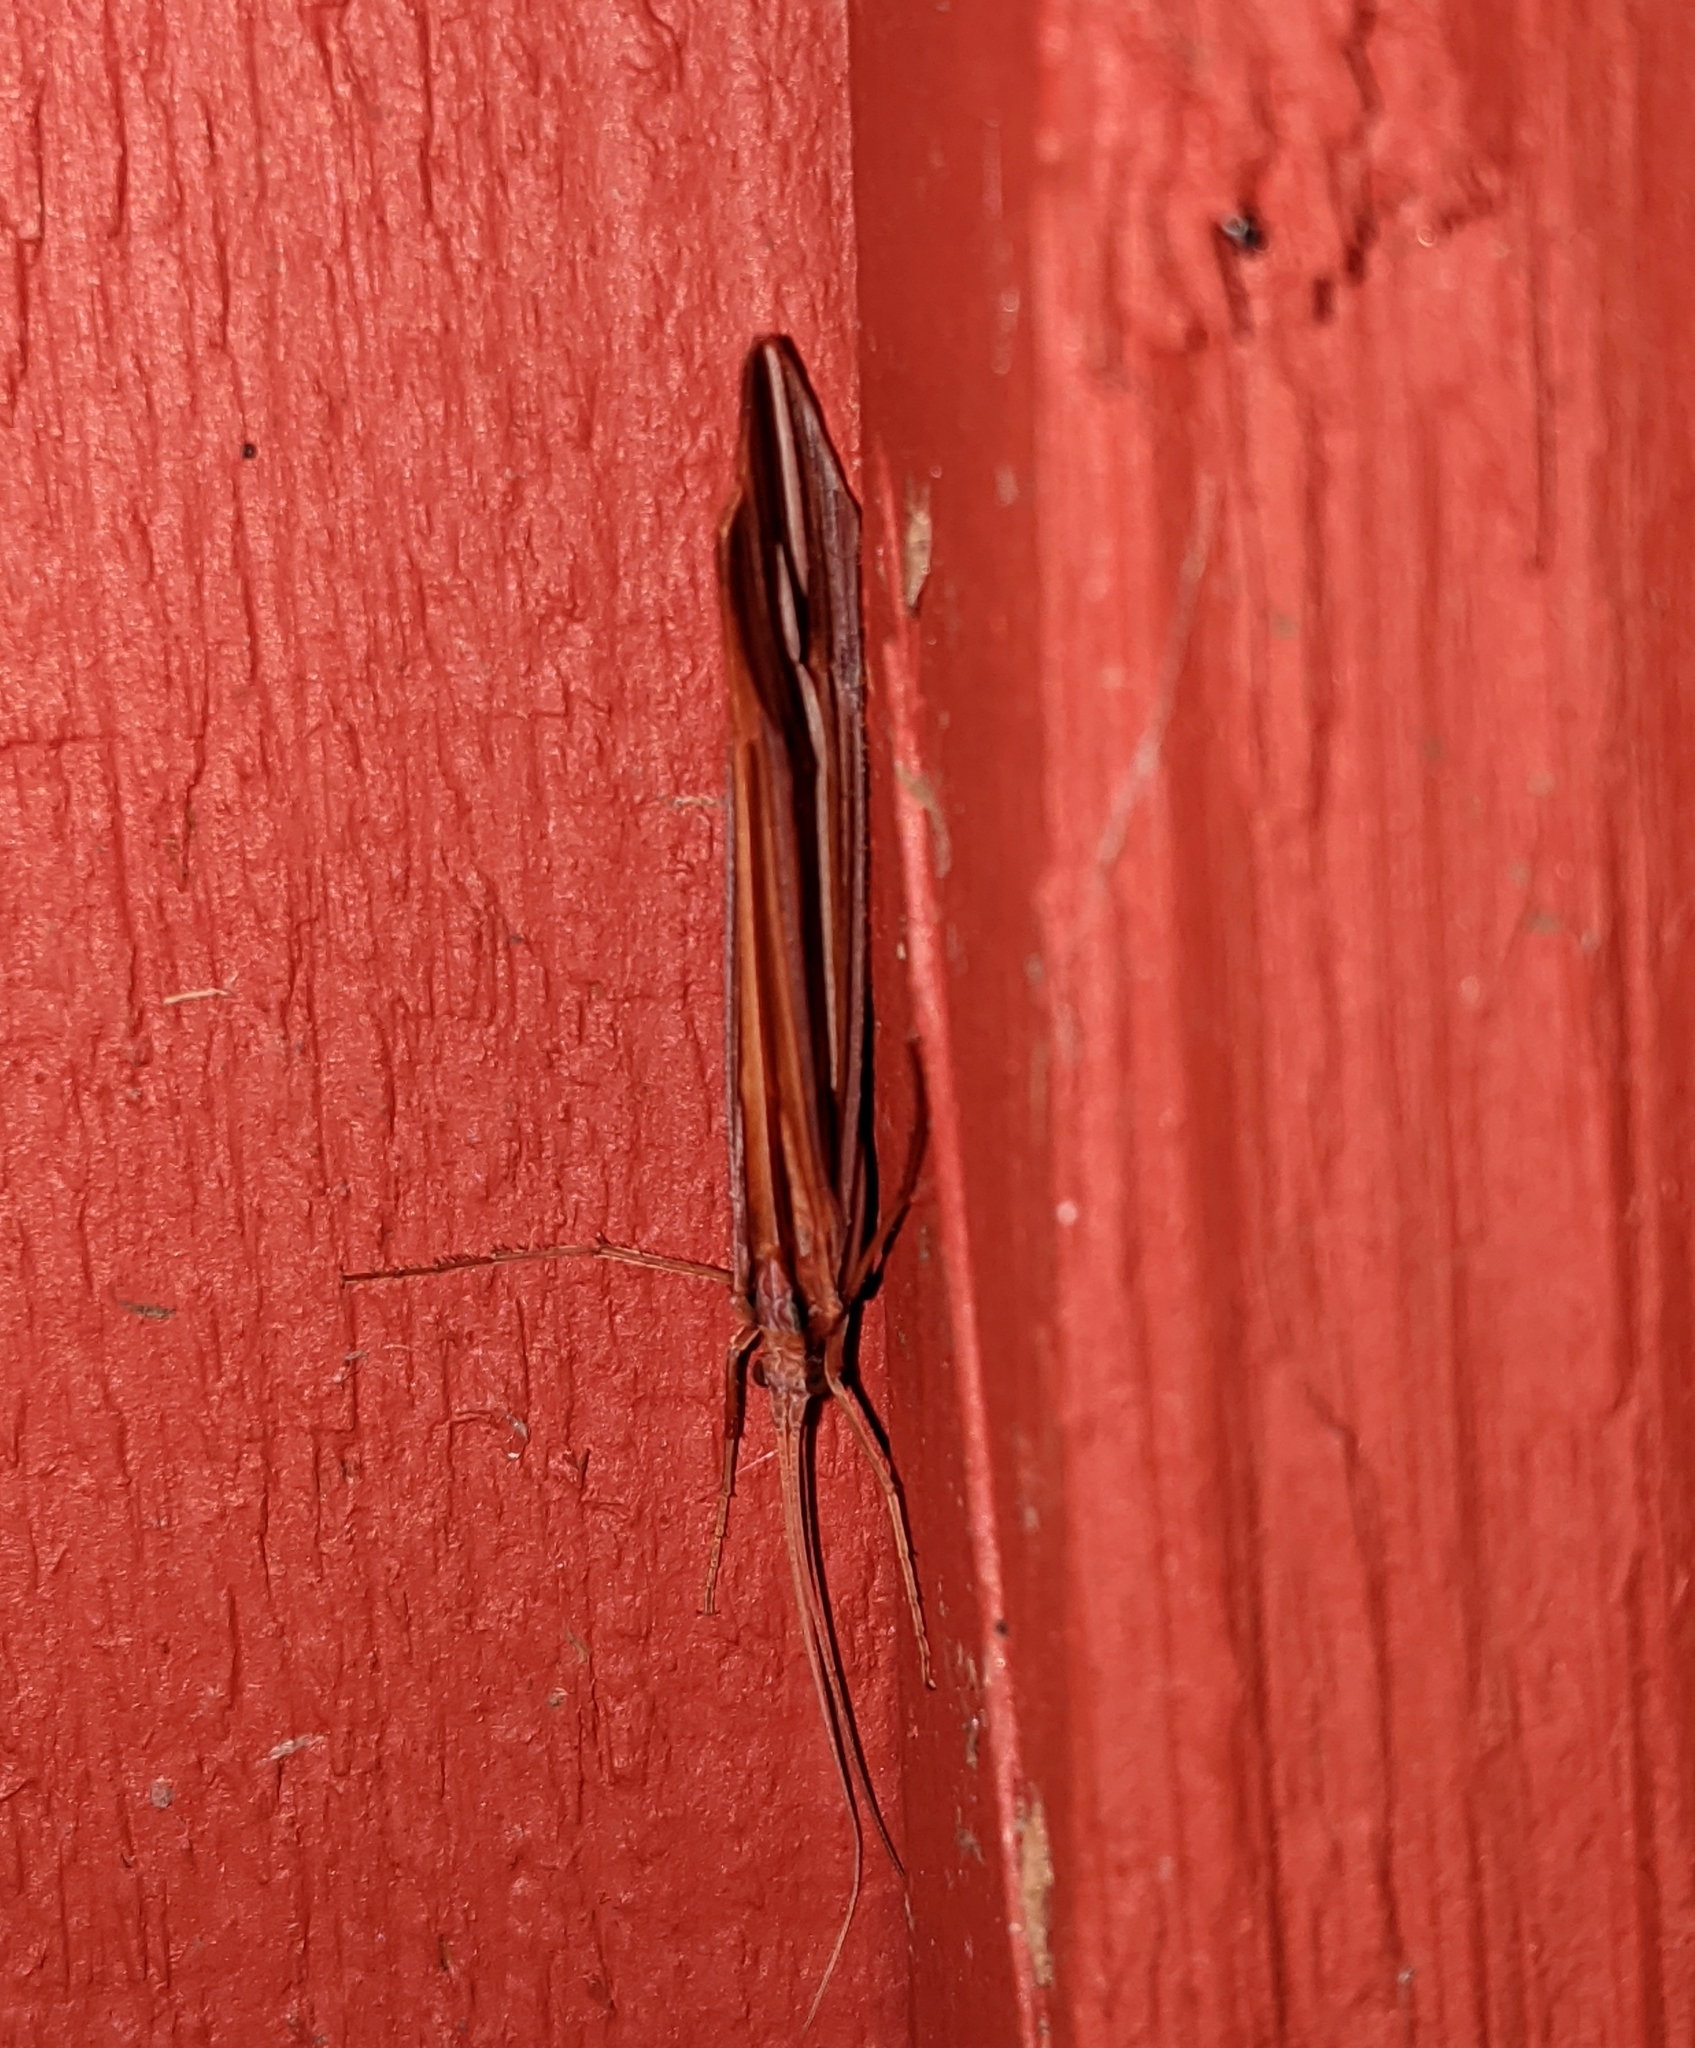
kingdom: Animalia
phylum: Arthropoda
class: Insecta
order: Trichoptera
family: Limnephilidae
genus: Psychoglypha
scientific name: Psychoglypha bella
